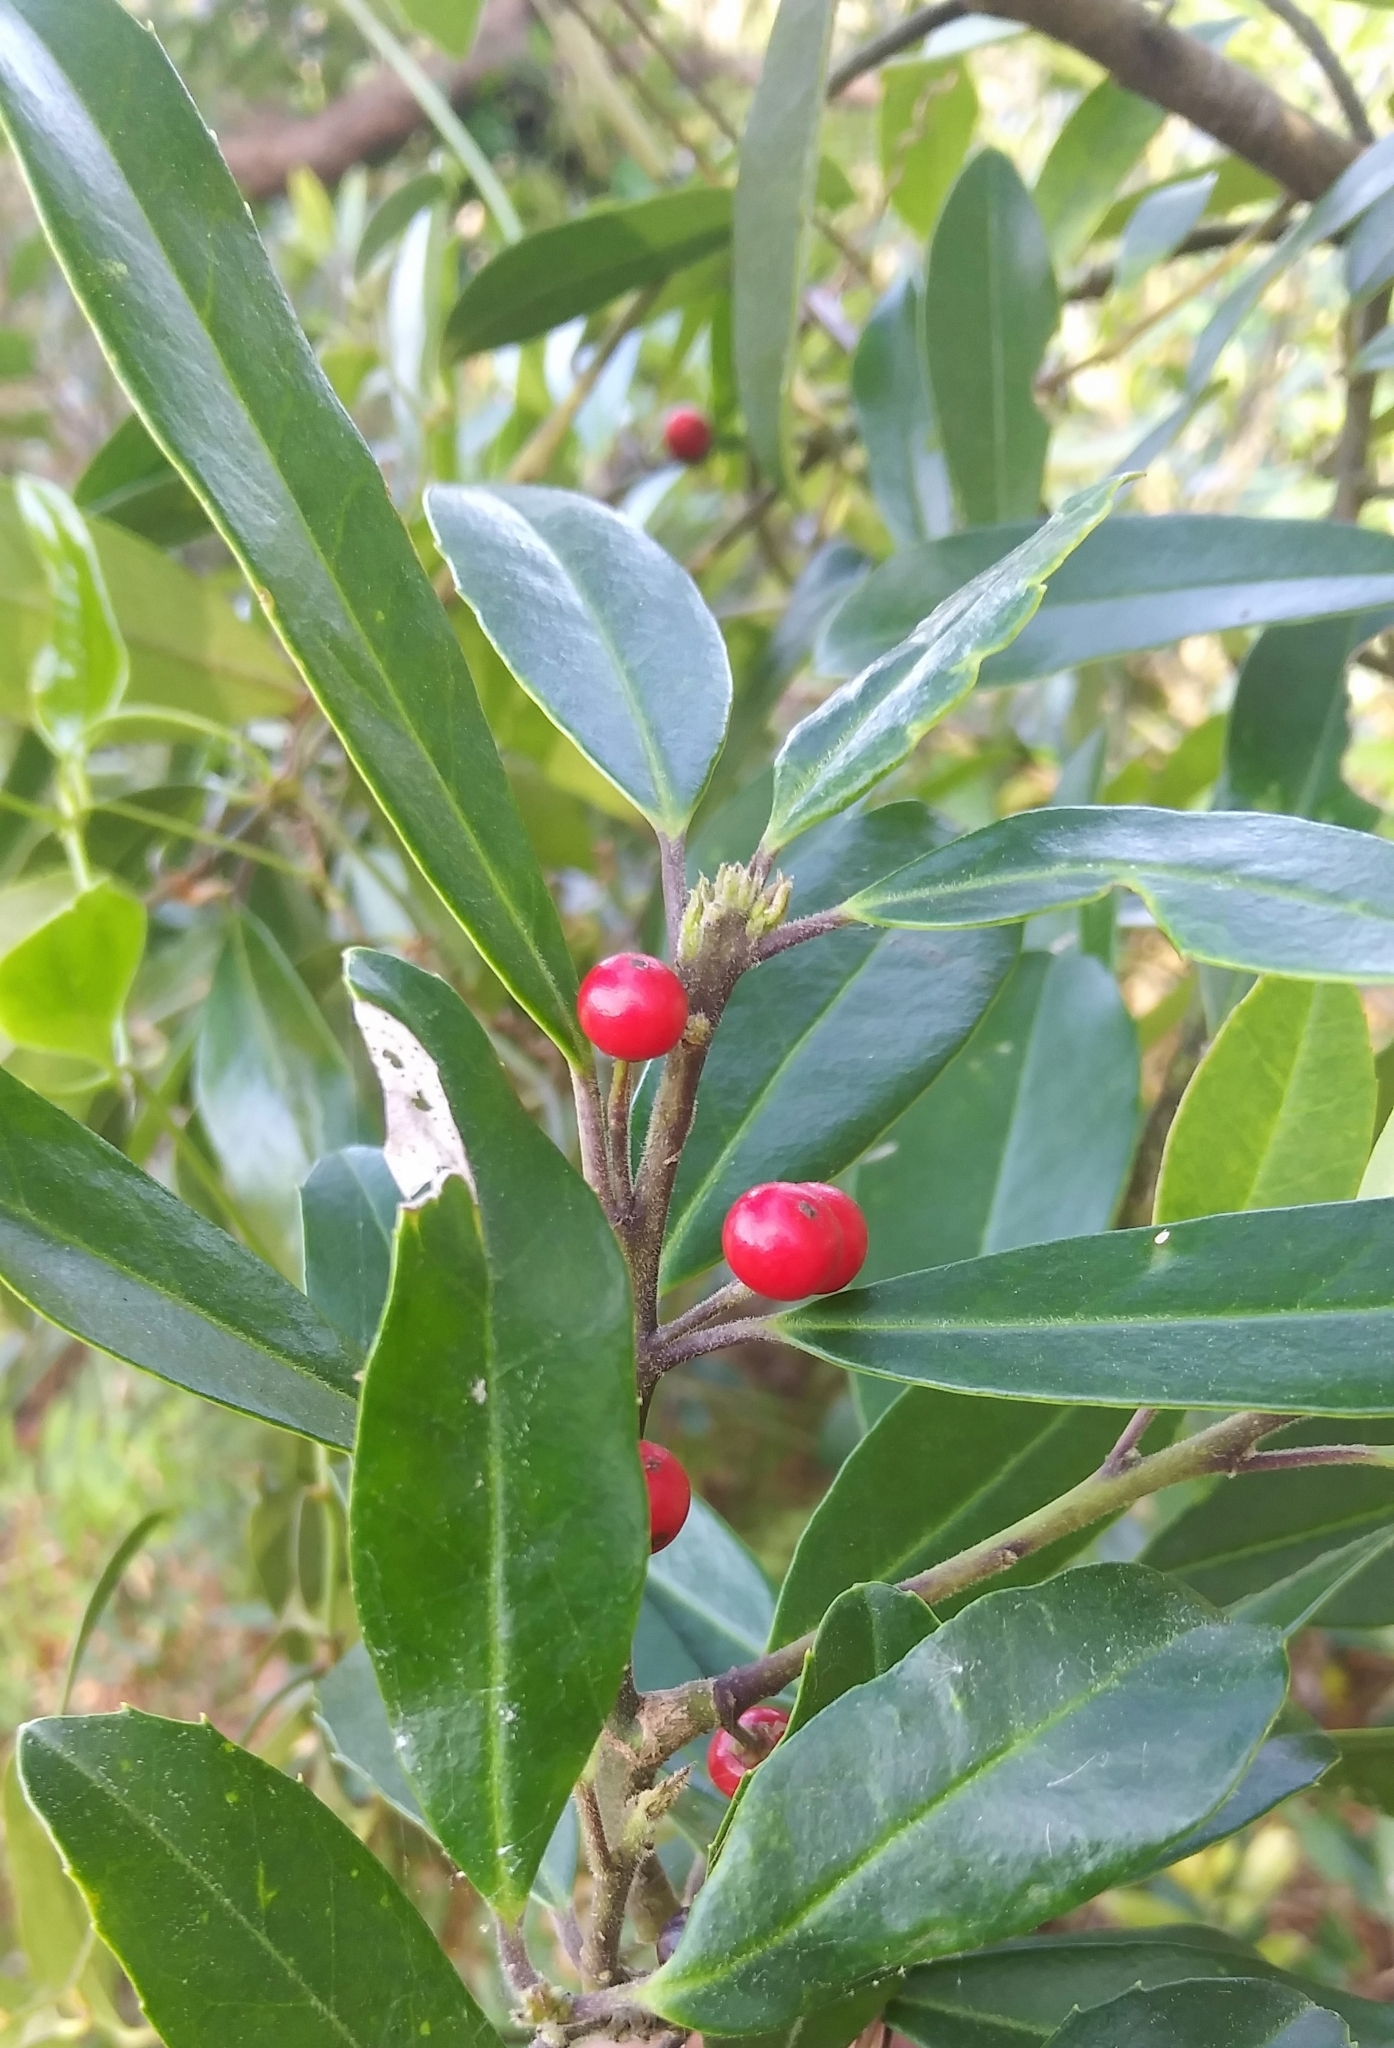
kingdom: Plantae
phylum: Tracheophyta
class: Magnoliopsida
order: Aquifoliales
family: Aquifoliaceae
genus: Ilex
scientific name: Ilex cassine
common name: Dahoon
